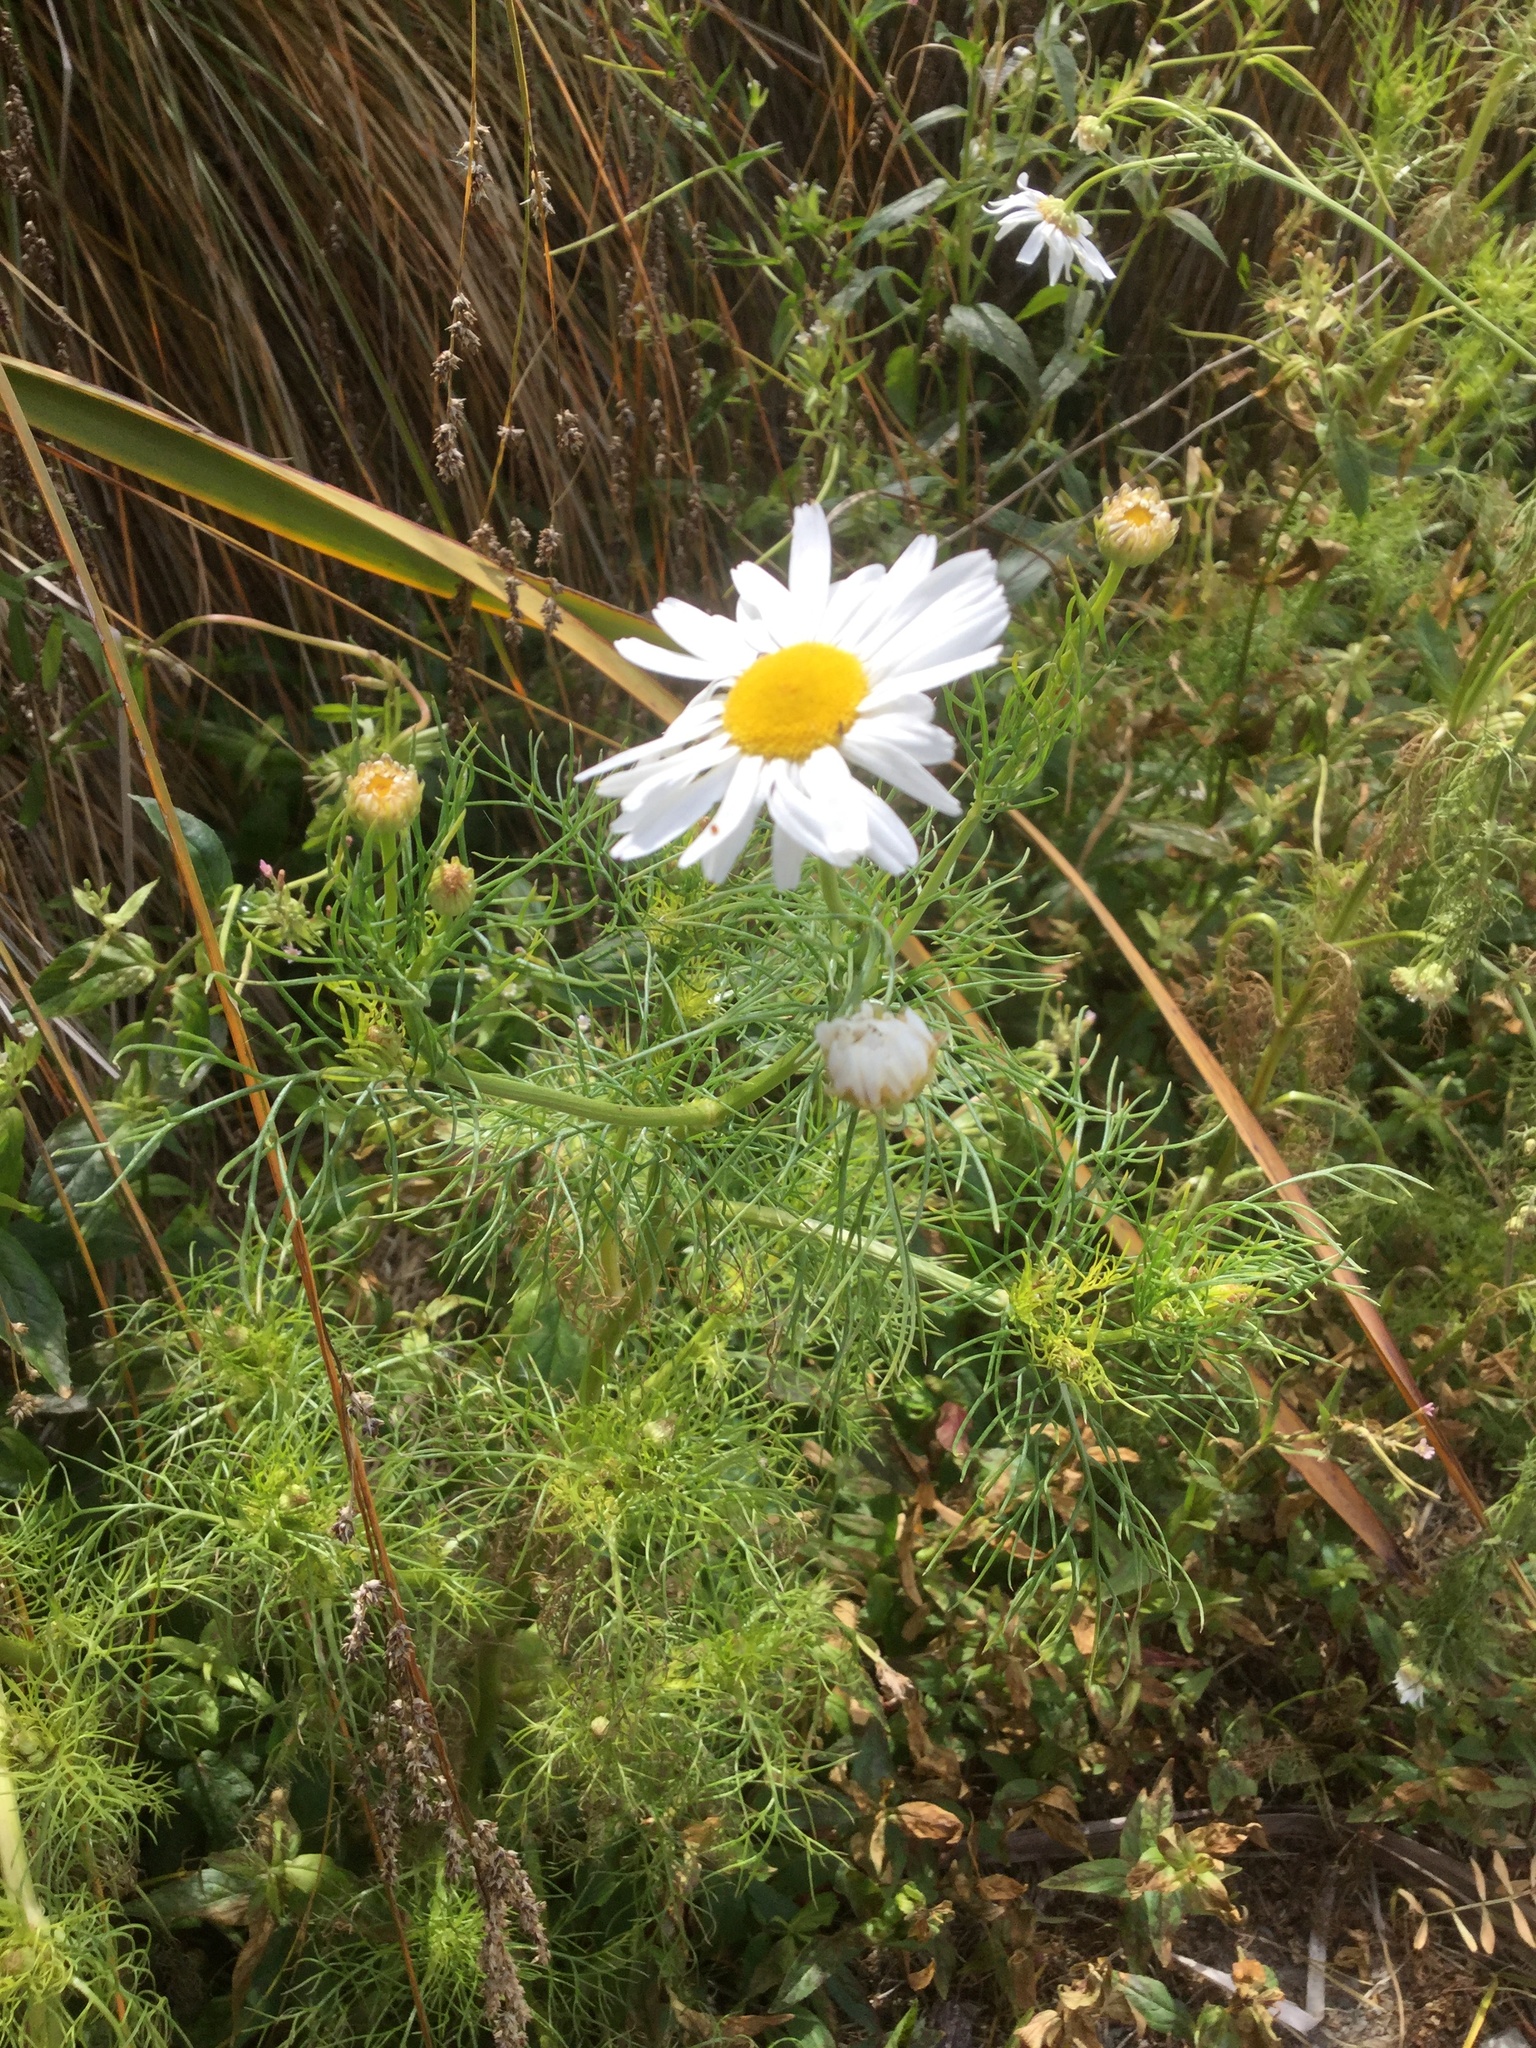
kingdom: Plantae
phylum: Tracheophyta
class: Magnoliopsida
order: Asterales
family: Asteraceae
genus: Tripleurospermum
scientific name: Tripleurospermum inodorum
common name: Scentless mayweed
